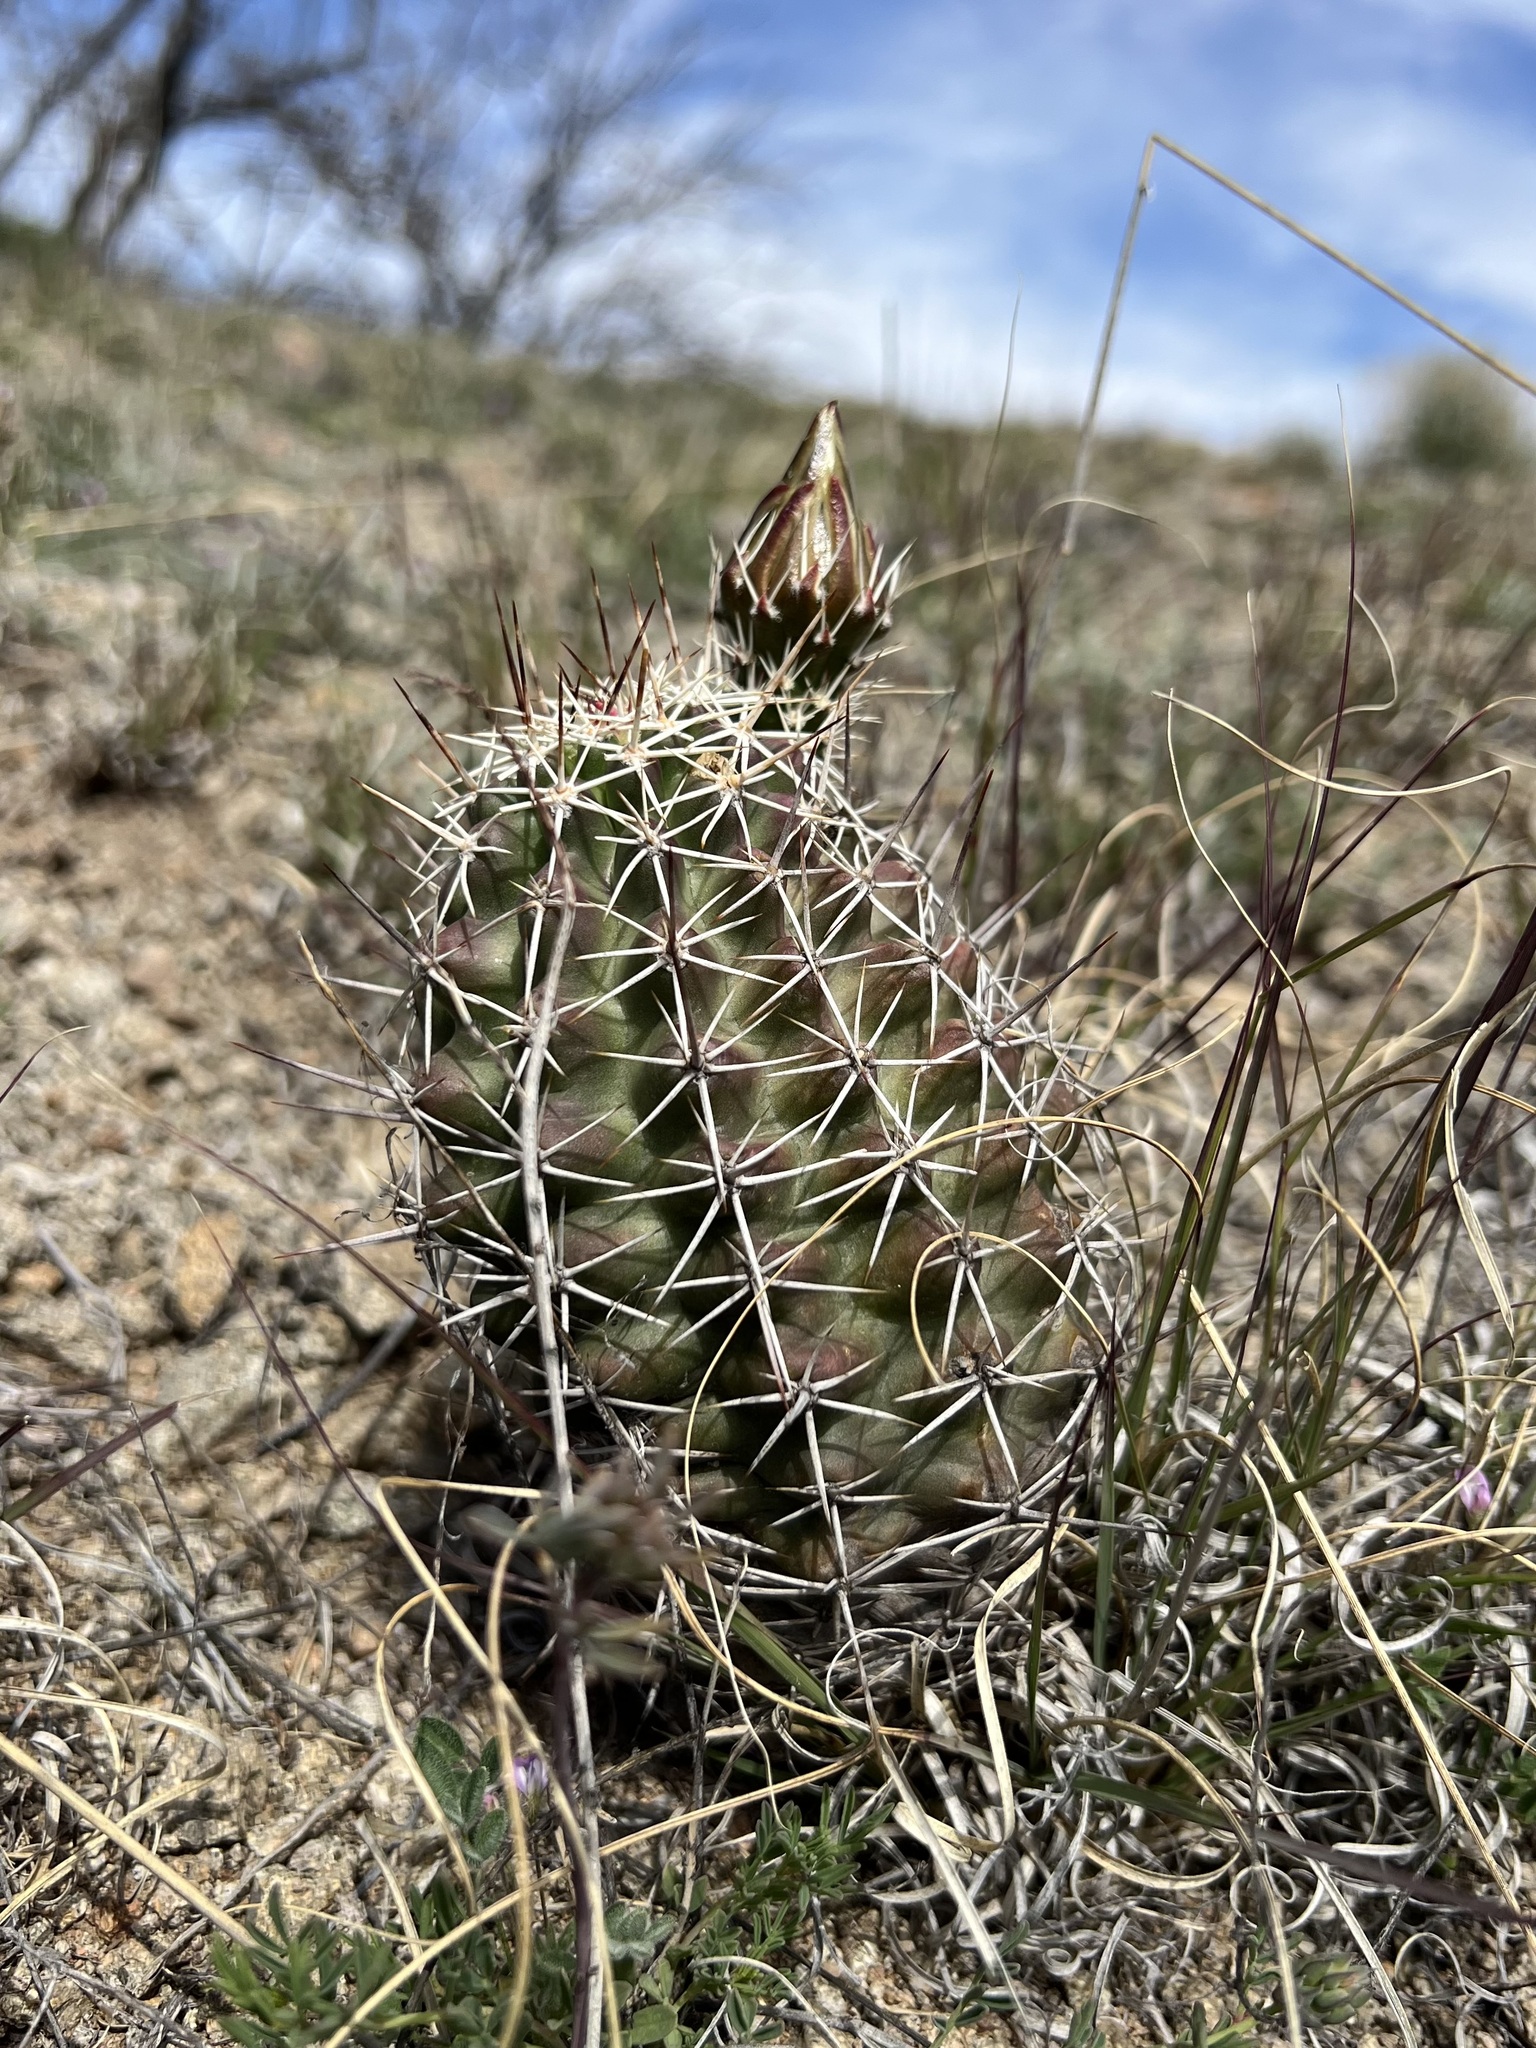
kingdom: Plantae
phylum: Tracheophyta
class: Magnoliopsida
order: Caryophyllales
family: Cactaceae
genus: Echinocereus
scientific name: Echinocereus fendleri
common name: Fendler's hedgehog cactus
